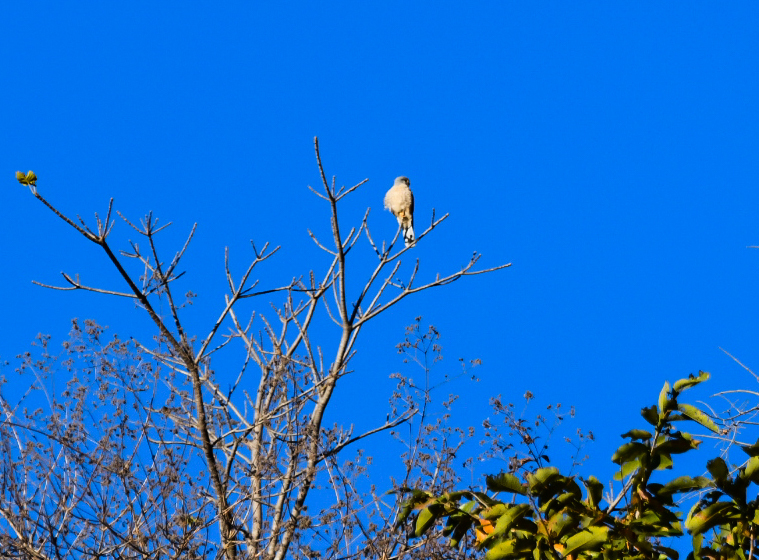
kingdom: Animalia
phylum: Chordata
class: Aves
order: Accipitriformes
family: Accipitridae
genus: Accipiter
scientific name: Accipiter badius
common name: Shikra
